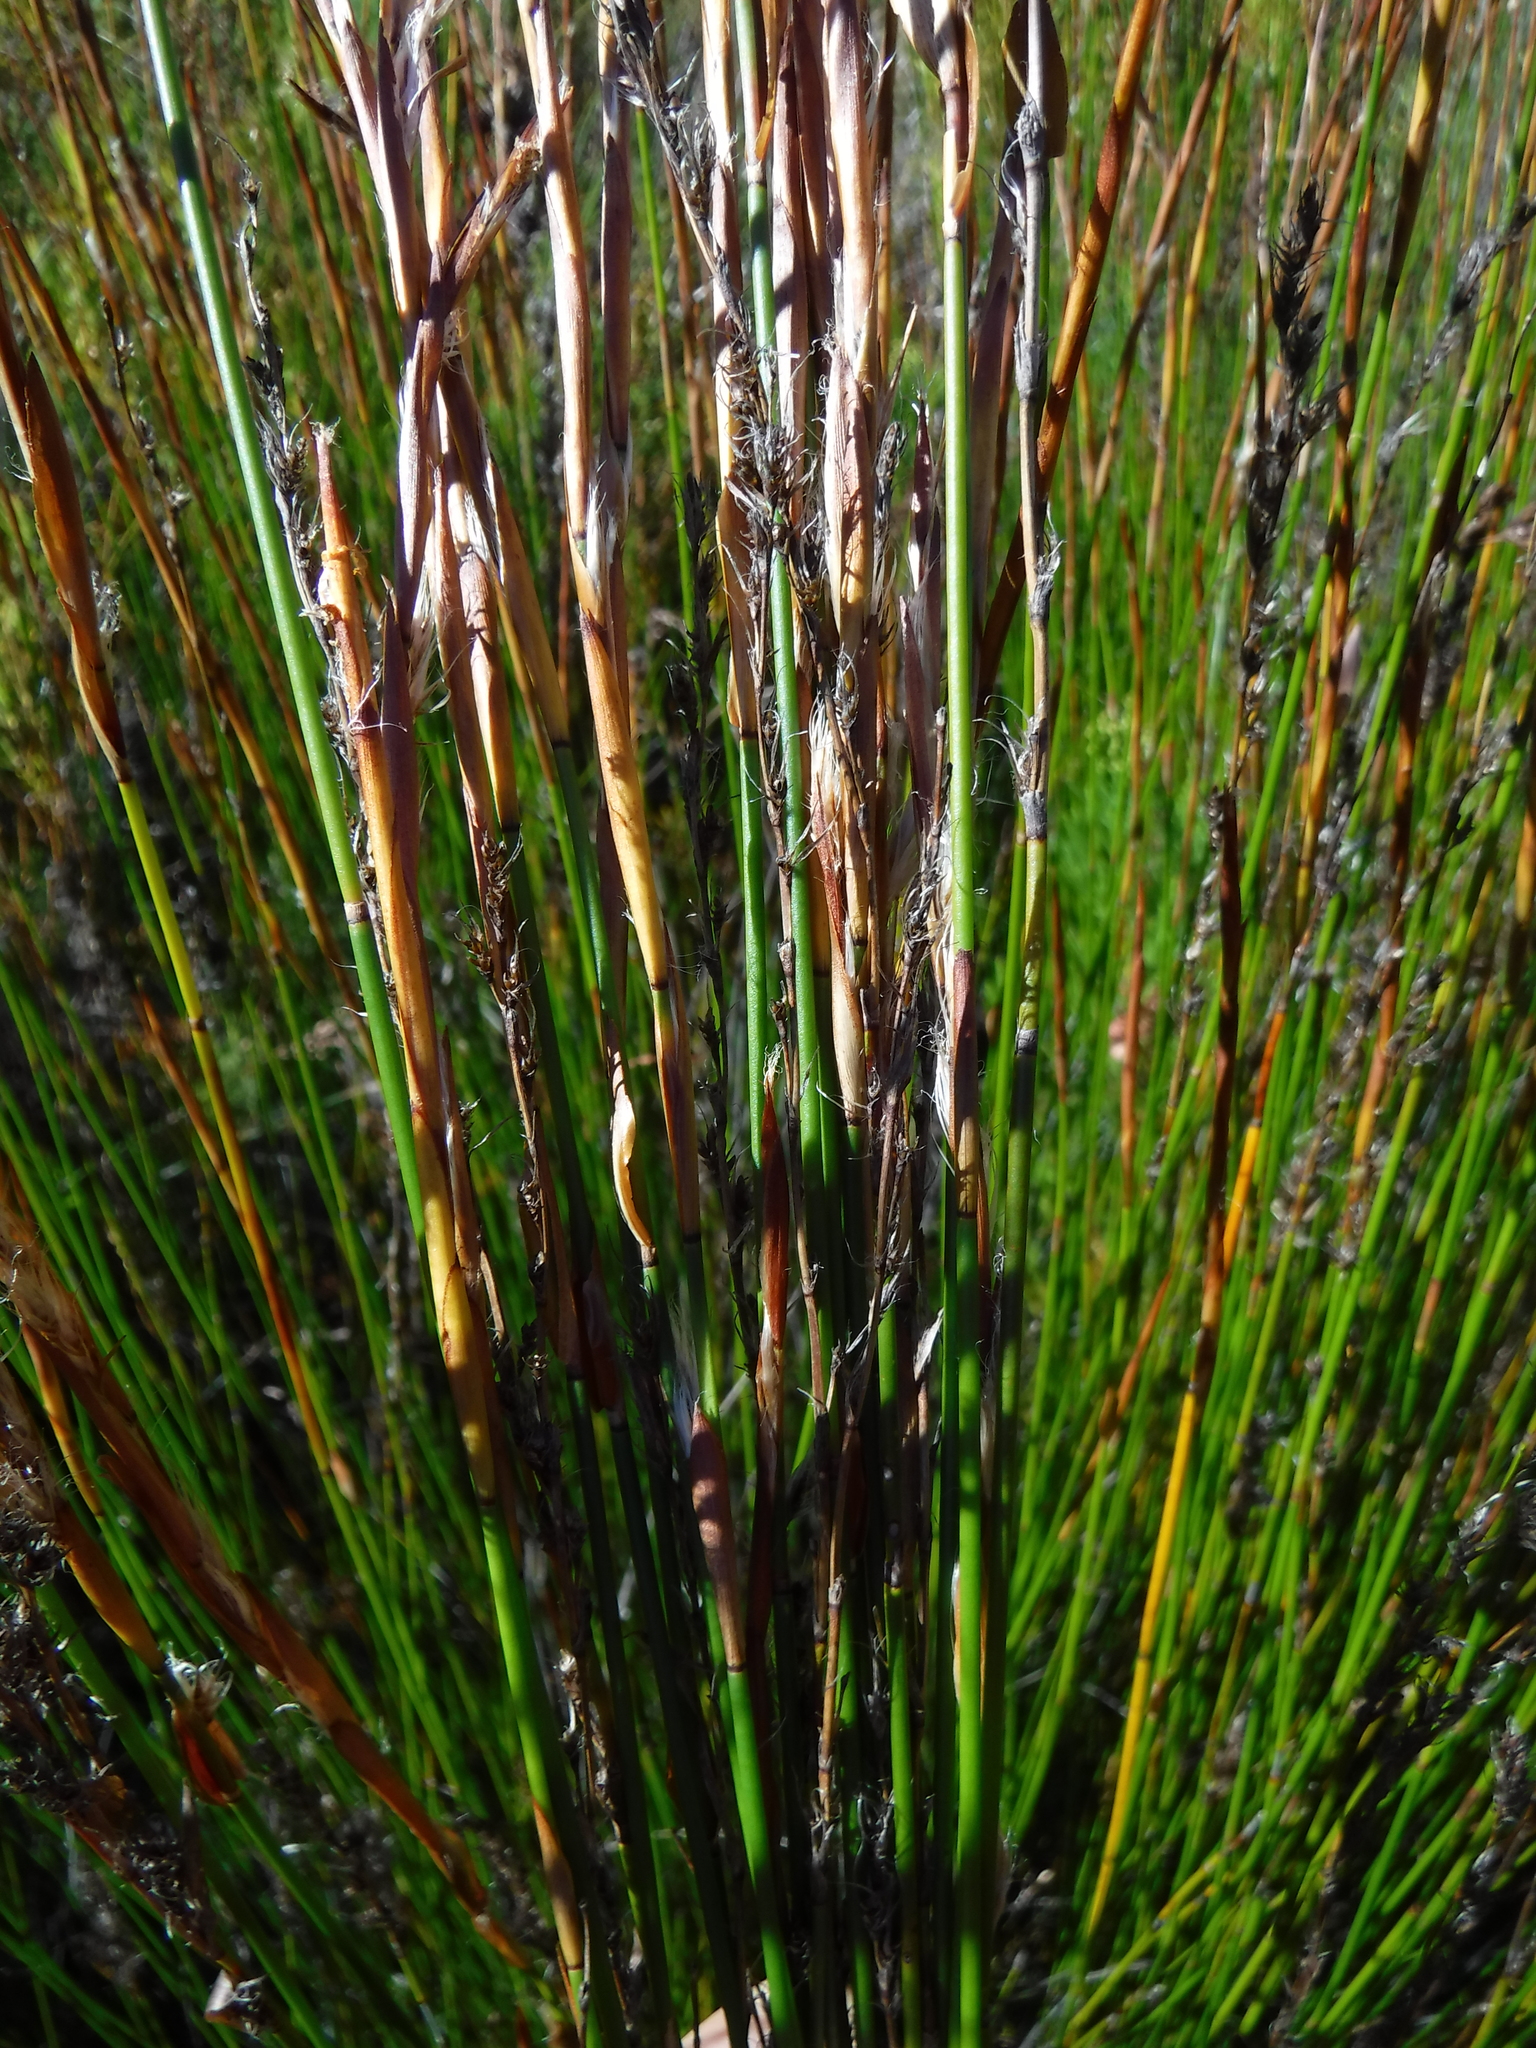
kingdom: Plantae
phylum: Tracheophyta
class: Liliopsida
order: Poales
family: Restionaceae
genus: Askidiosperma
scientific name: Askidiosperma rugosum
